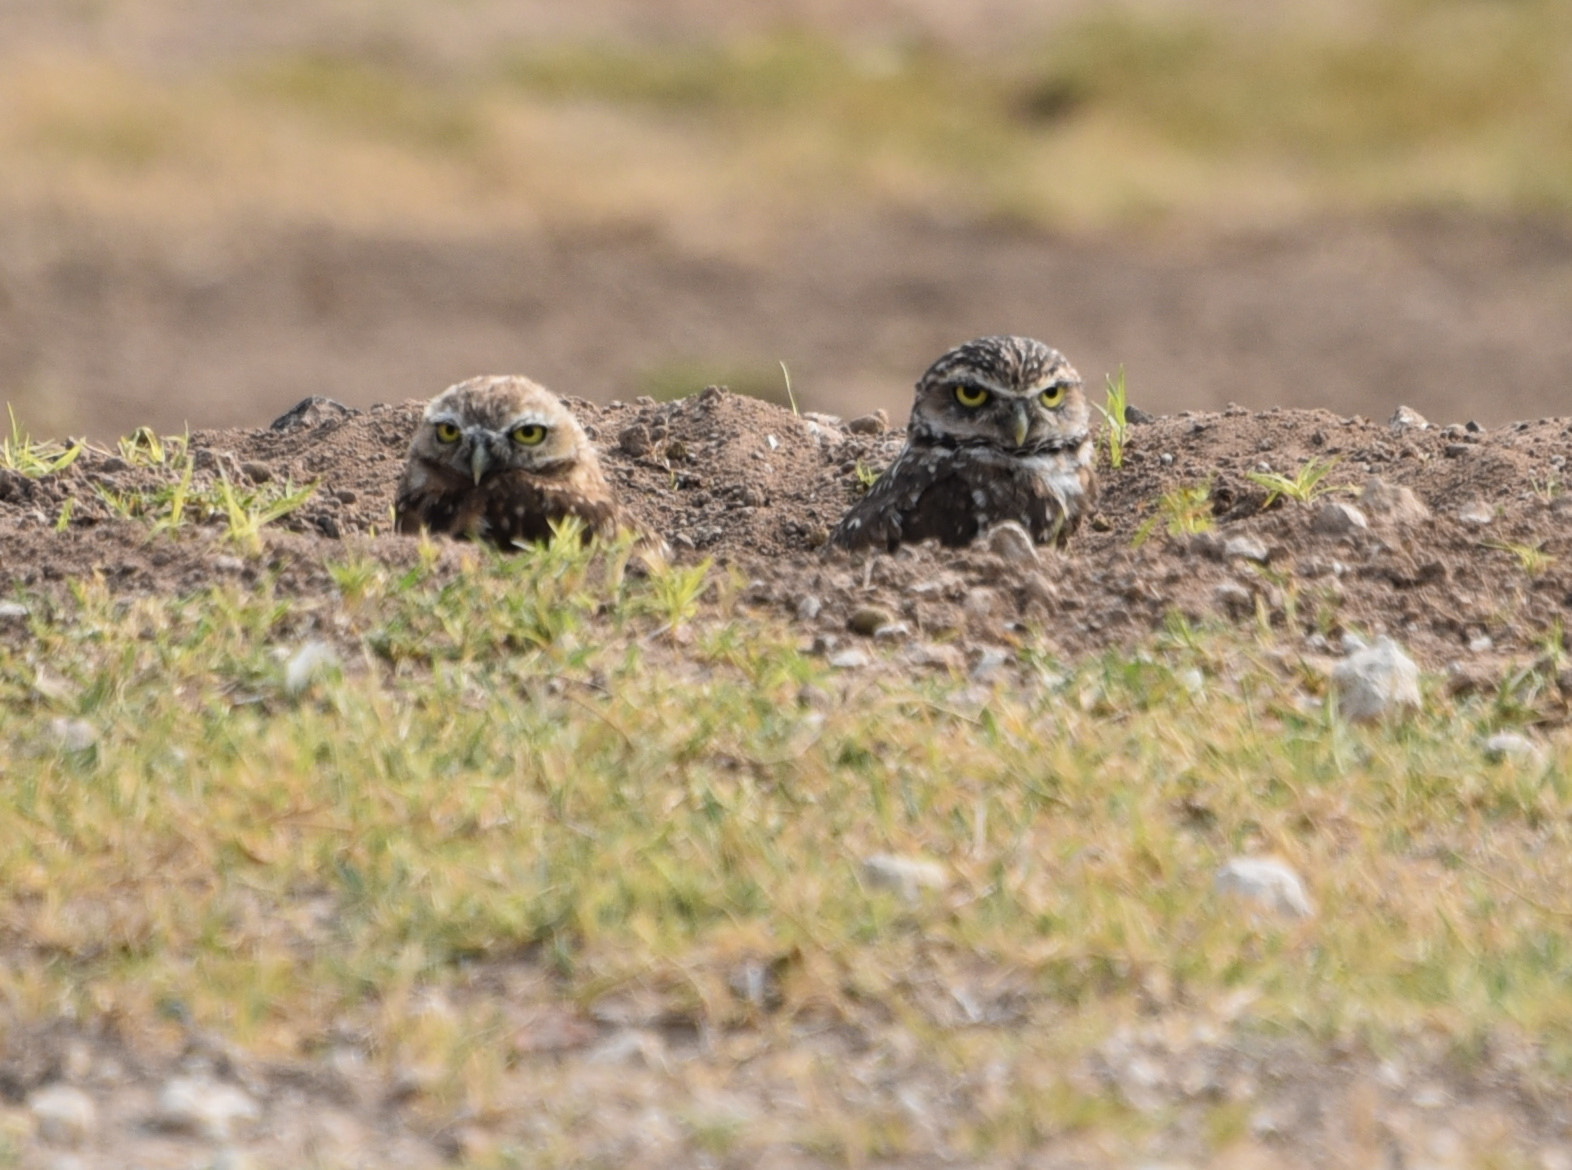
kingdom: Animalia
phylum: Chordata
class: Aves
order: Strigiformes
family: Strigidae
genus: Athene
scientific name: Athene cunicularia
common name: Burrowing owl
